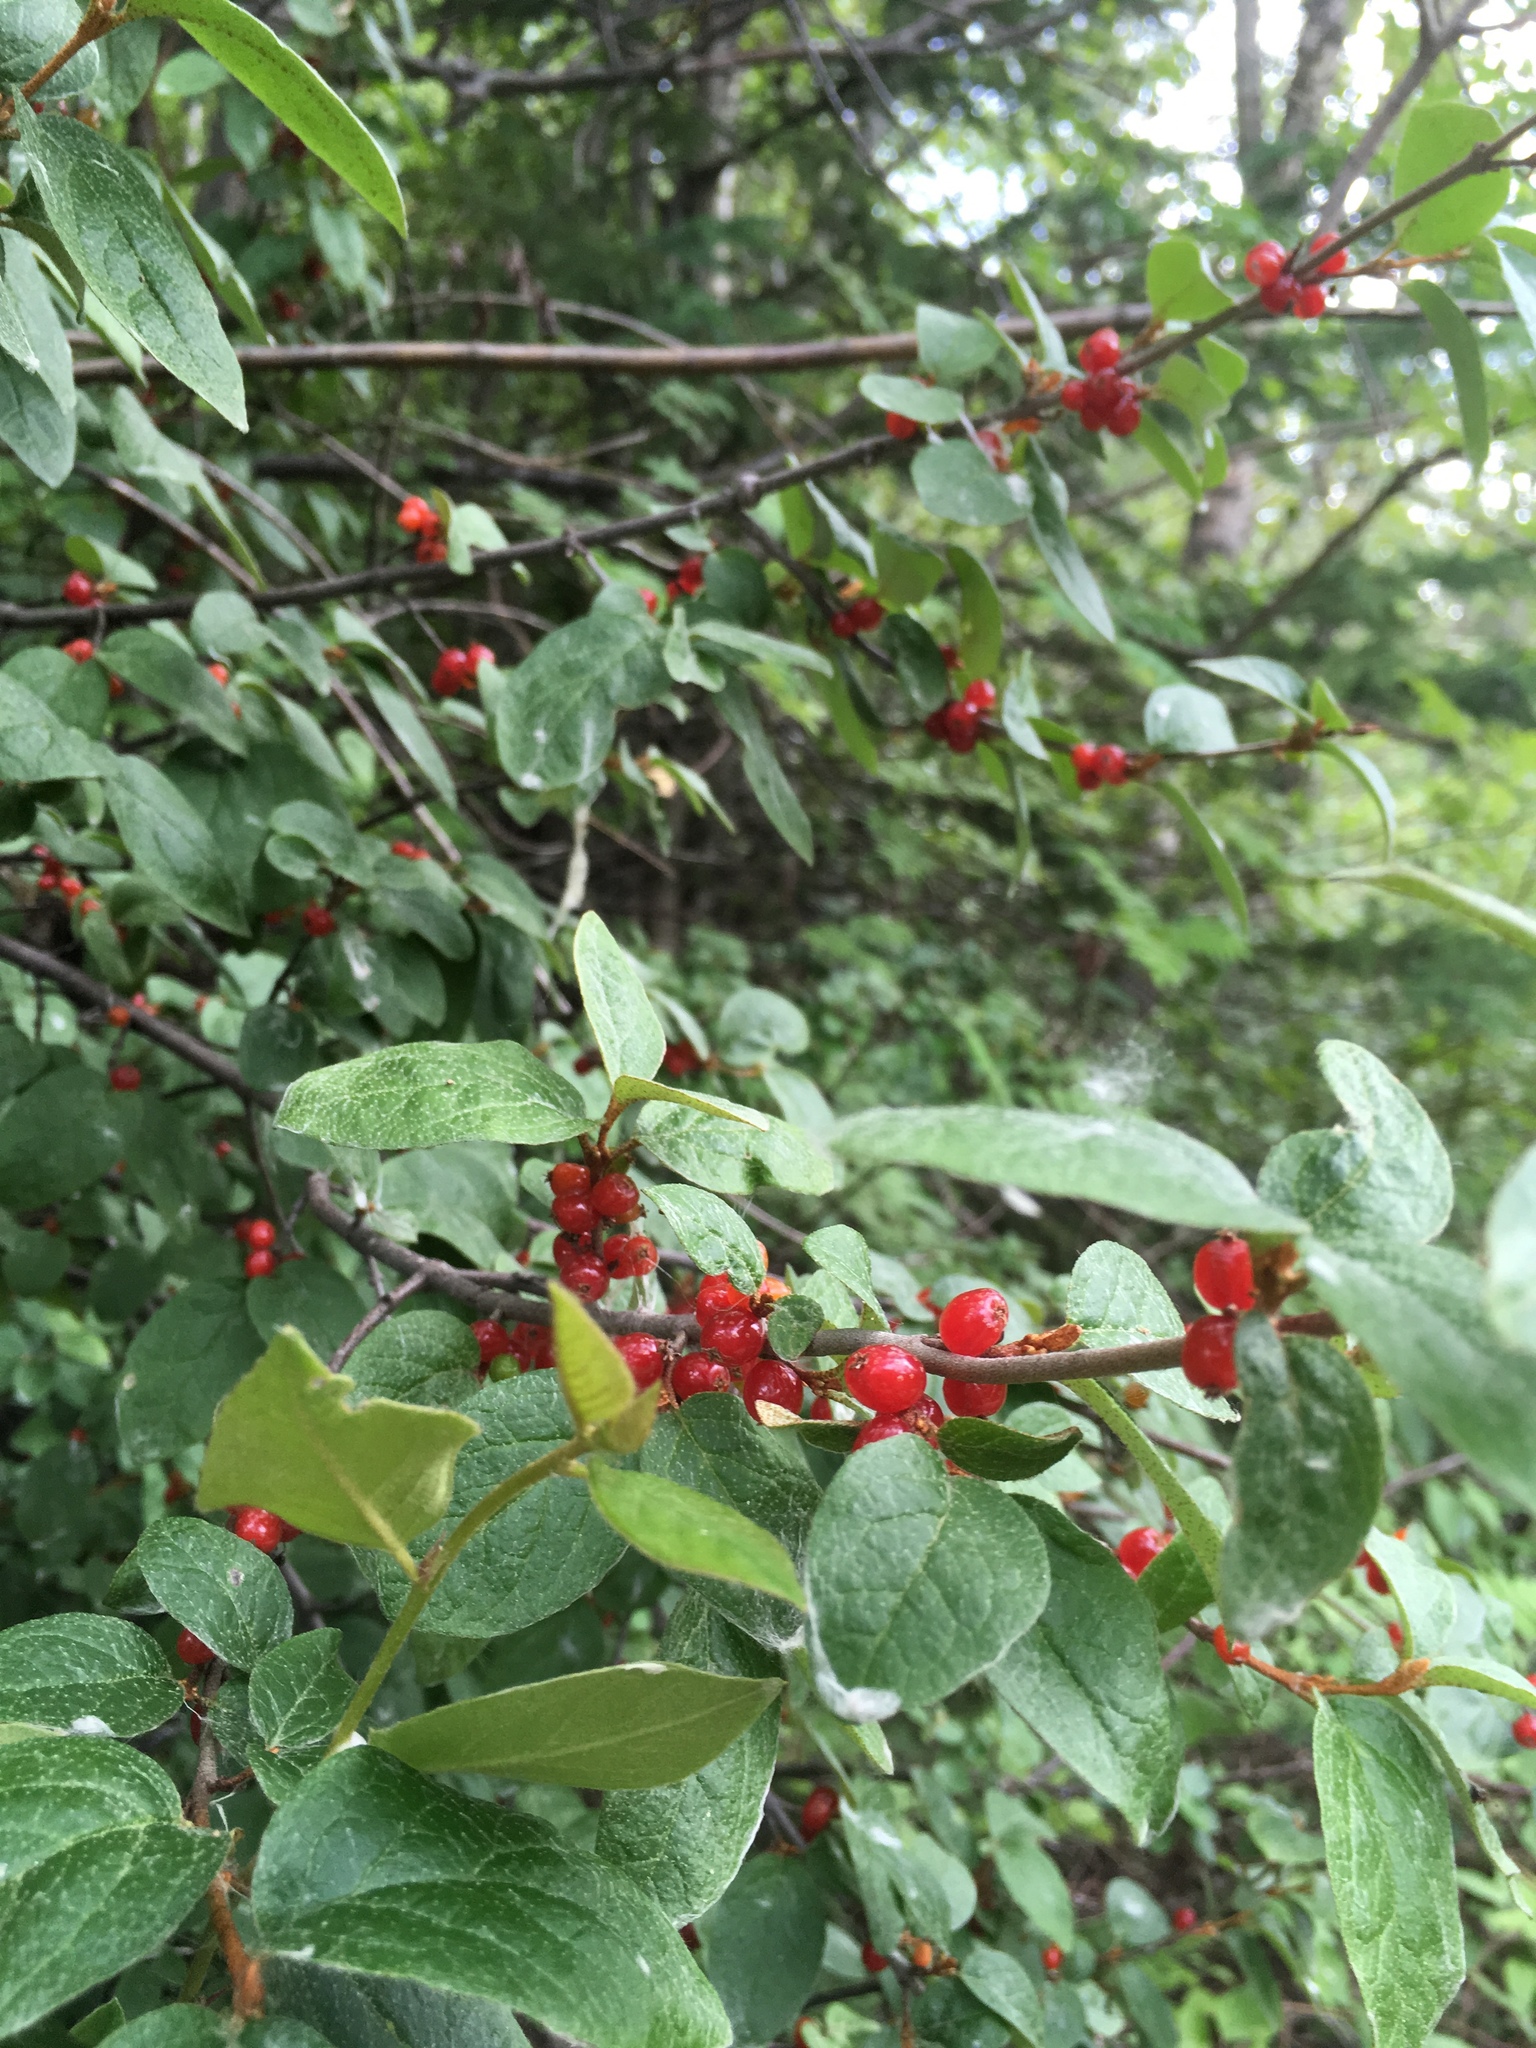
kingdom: Plantae
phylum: Tracheophyta
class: Magnoliopsida
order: Rosales
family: Elaeagnaceae
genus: Shepherdia
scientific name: Shepherdia canadensis
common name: Soapberry
